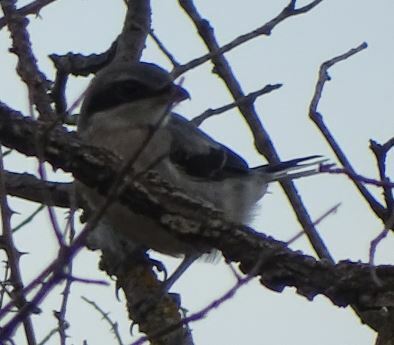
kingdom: Animalia
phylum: Chordata
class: Aves
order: Passeriformes
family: Laniidae
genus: Lanius
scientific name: Lanius meridionalis
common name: Iberian grey shrike
